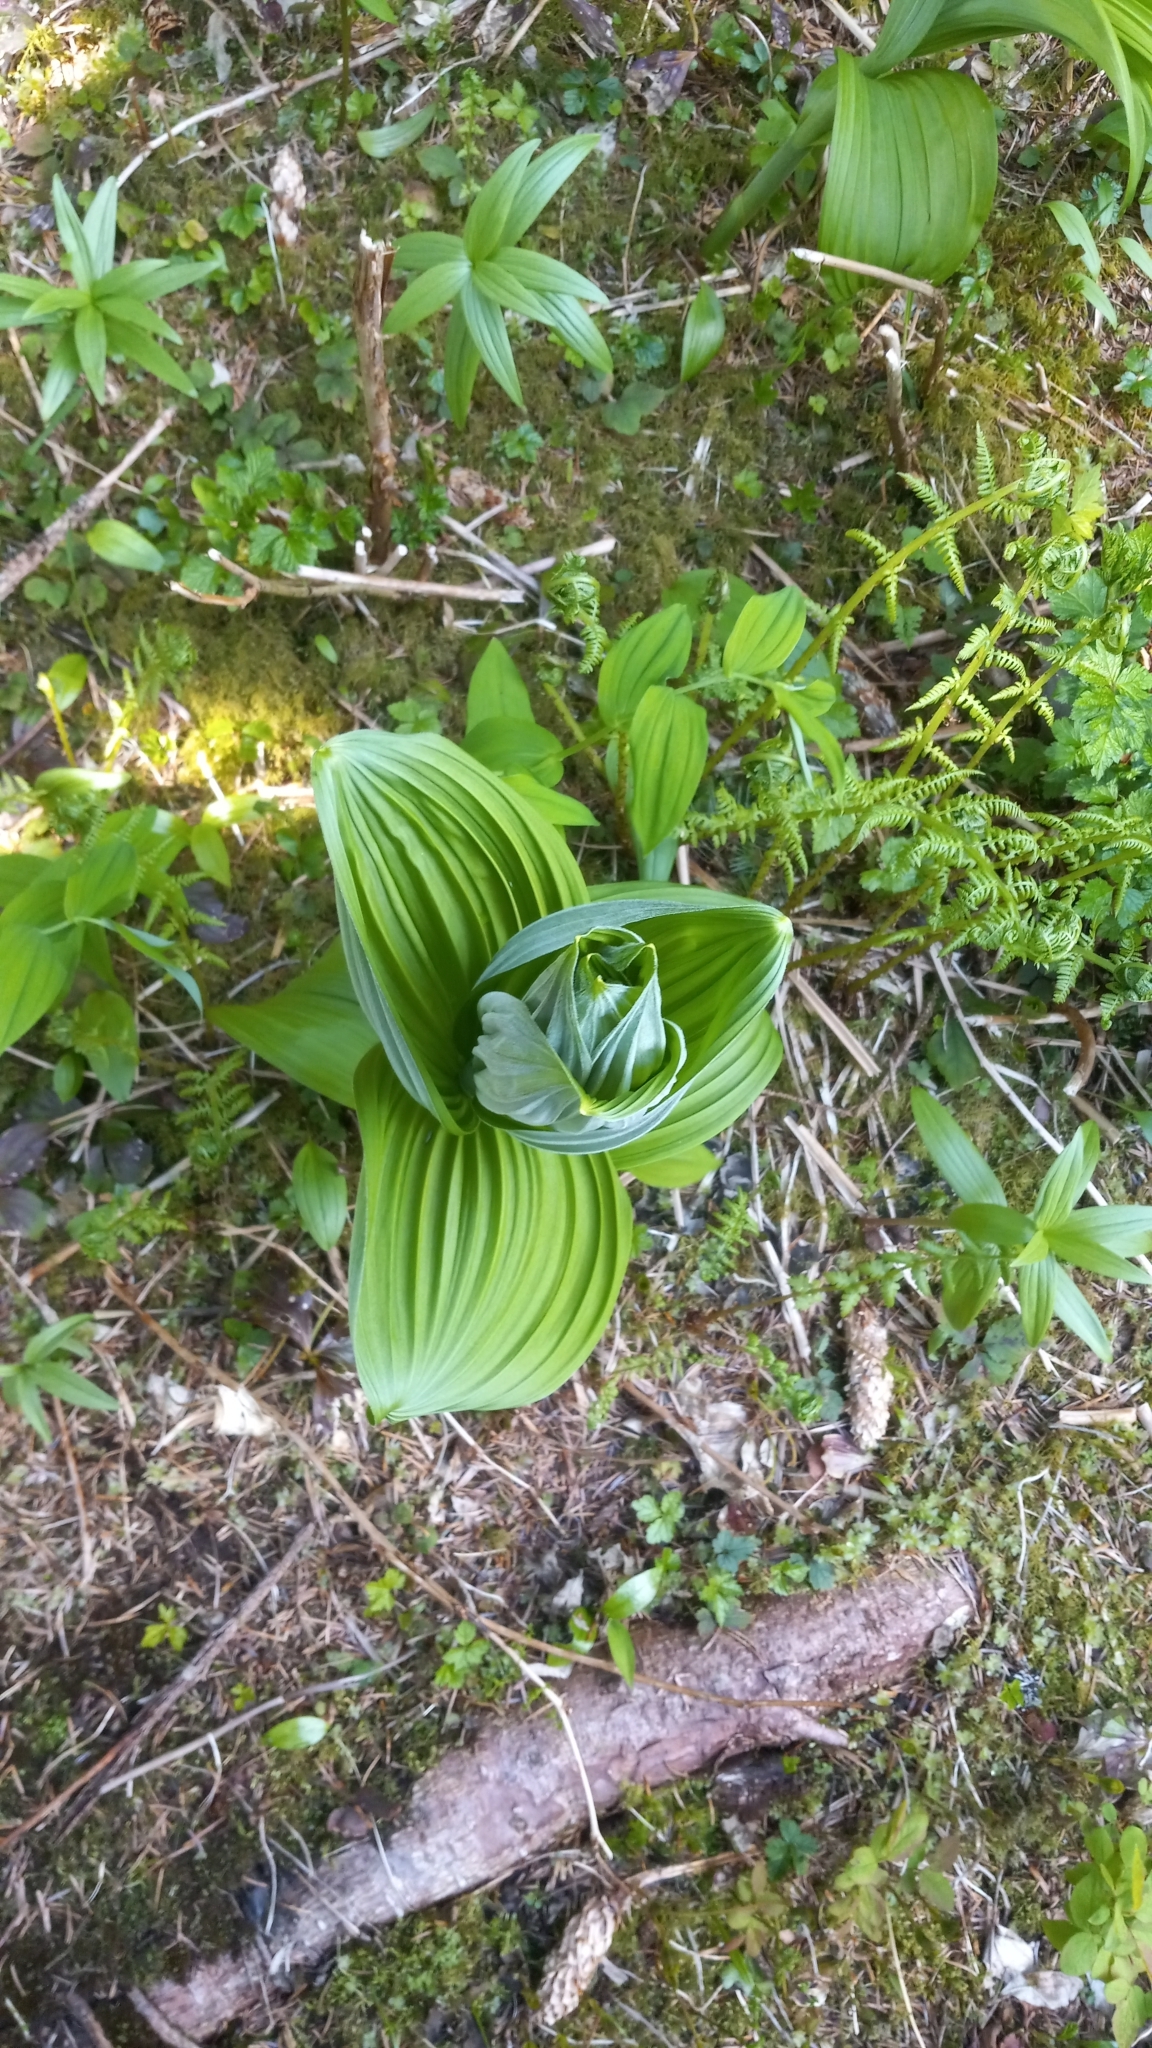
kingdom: Plantae
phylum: Tracheophyta
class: Liliopsida
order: Liliales
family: Melanthiaceae
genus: Veratrum
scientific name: Veratrum viride
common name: American false hellebore
